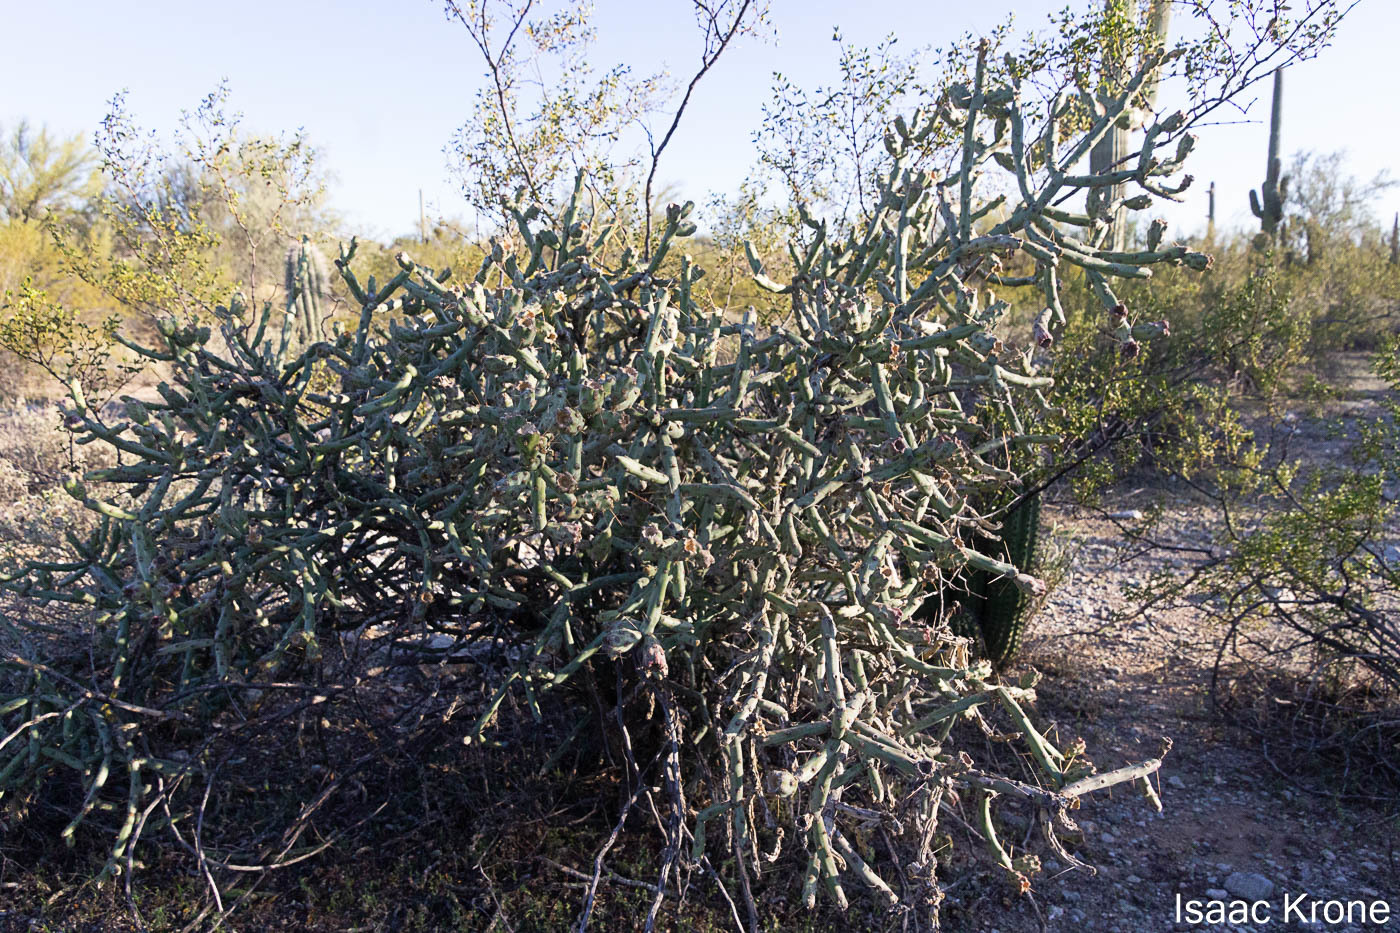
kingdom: Plantae
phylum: Tracheophyta
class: Magnoliopsida
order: Caryophyllales
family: Cactaceae
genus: Cylindropuntia
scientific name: Cylindropuntia arbuscula
